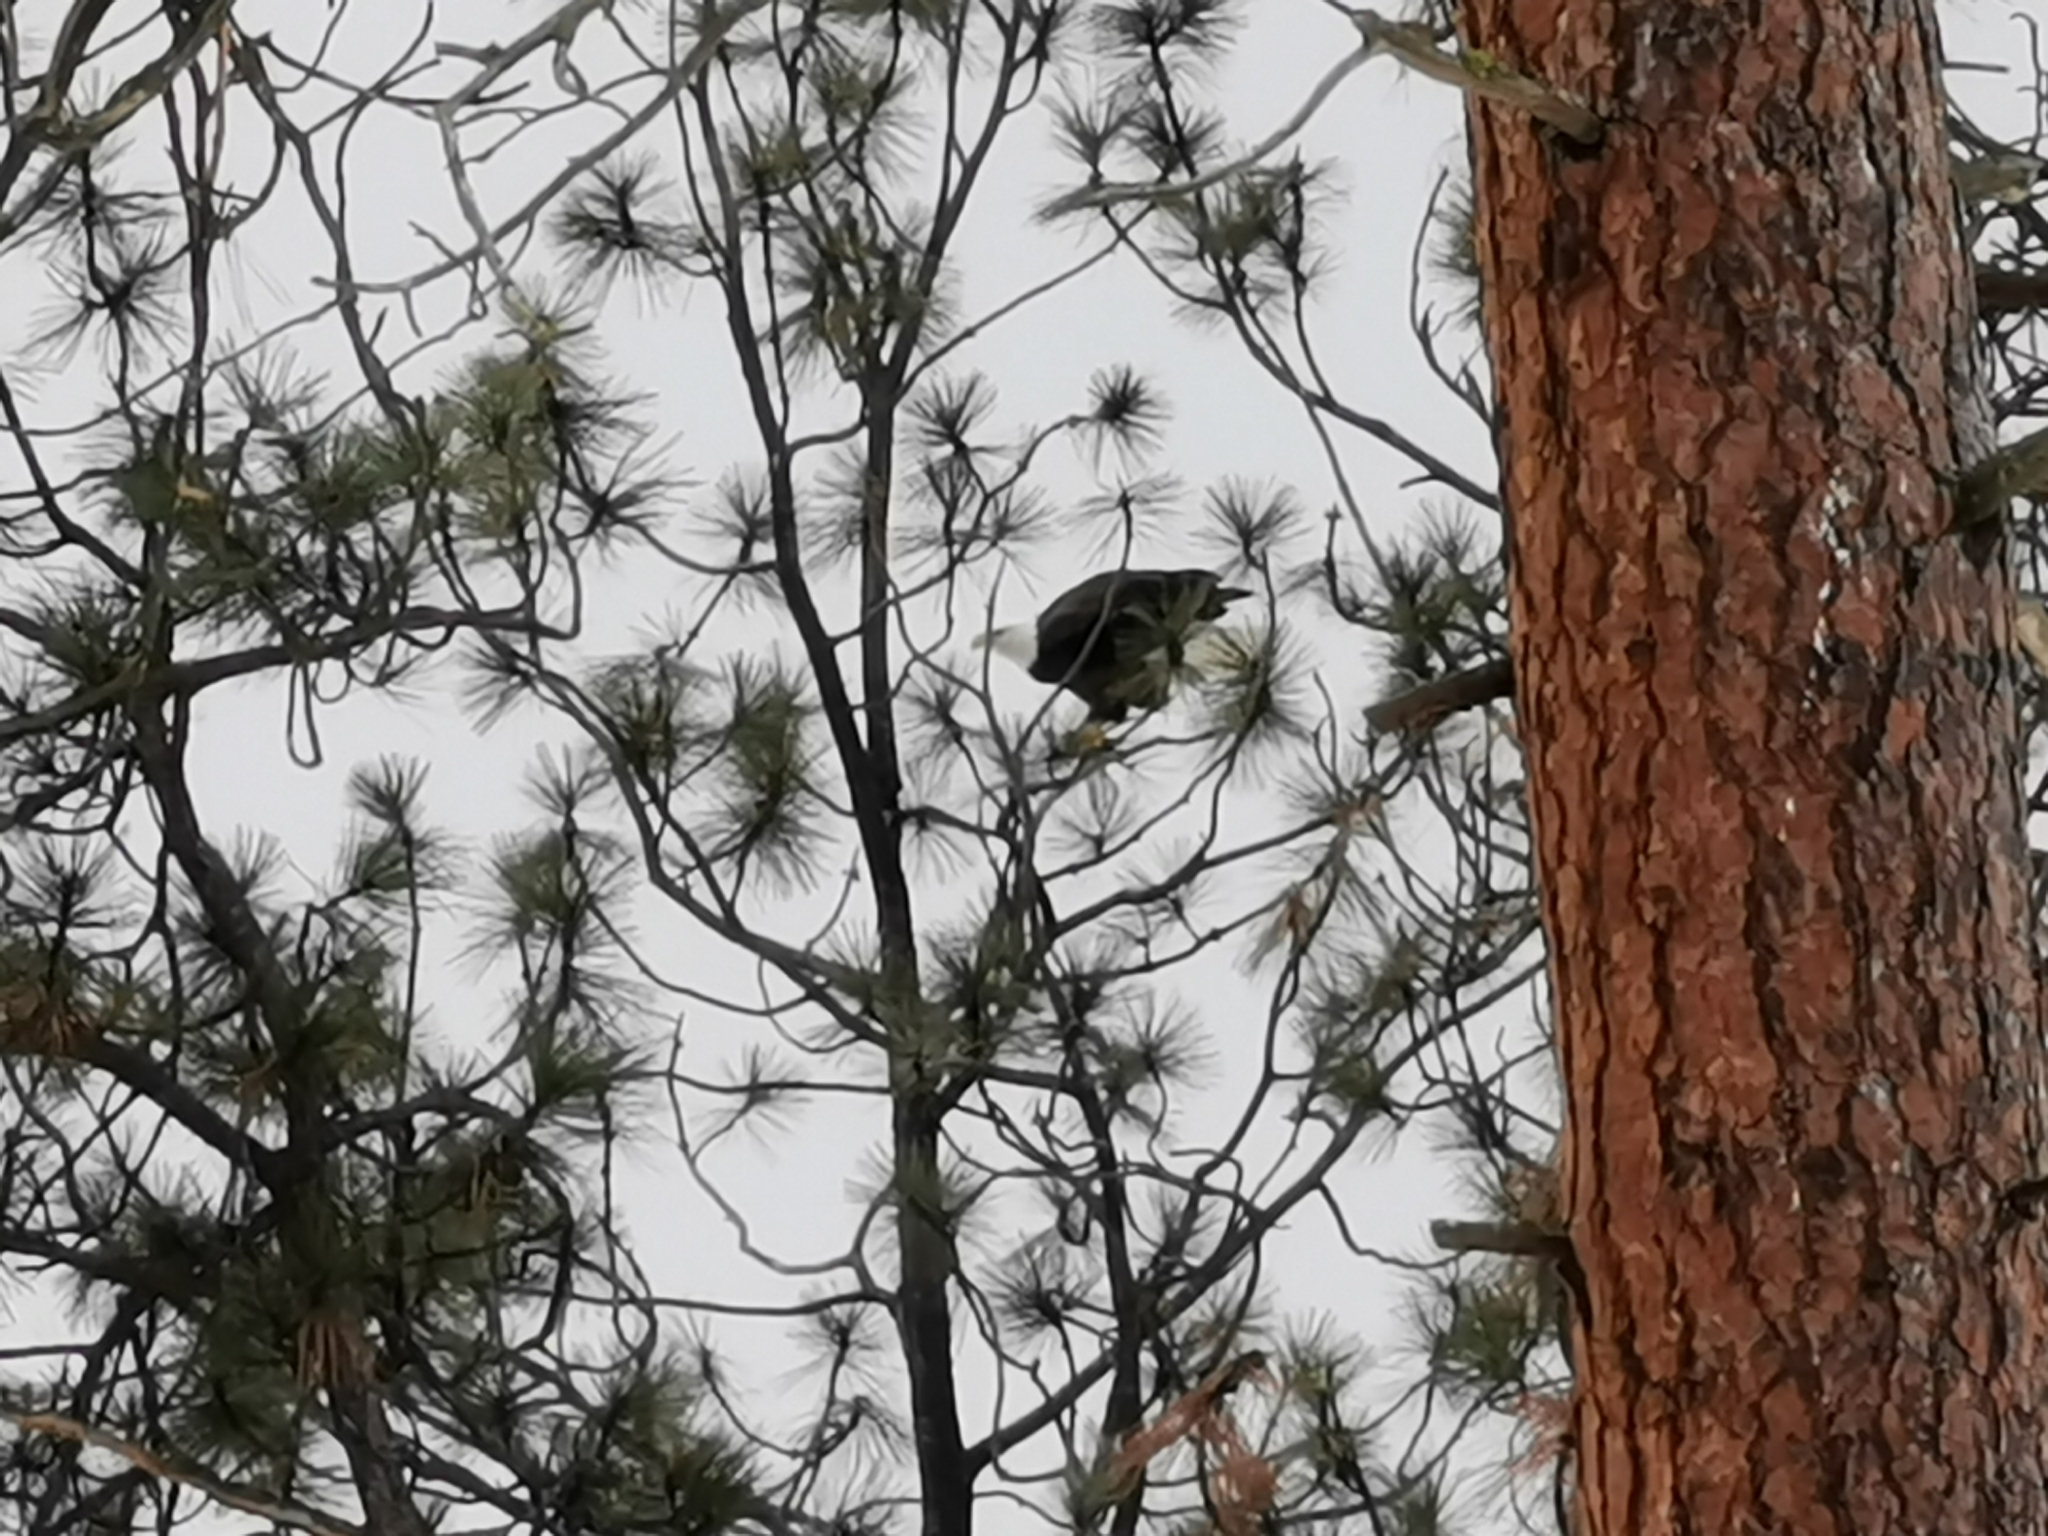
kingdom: Animalia
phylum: Chordata
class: Aves
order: Accipitriformes
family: Accipitridae
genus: Haliaeetus
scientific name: Haliaeetus leucocephalus
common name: Bald eagle
